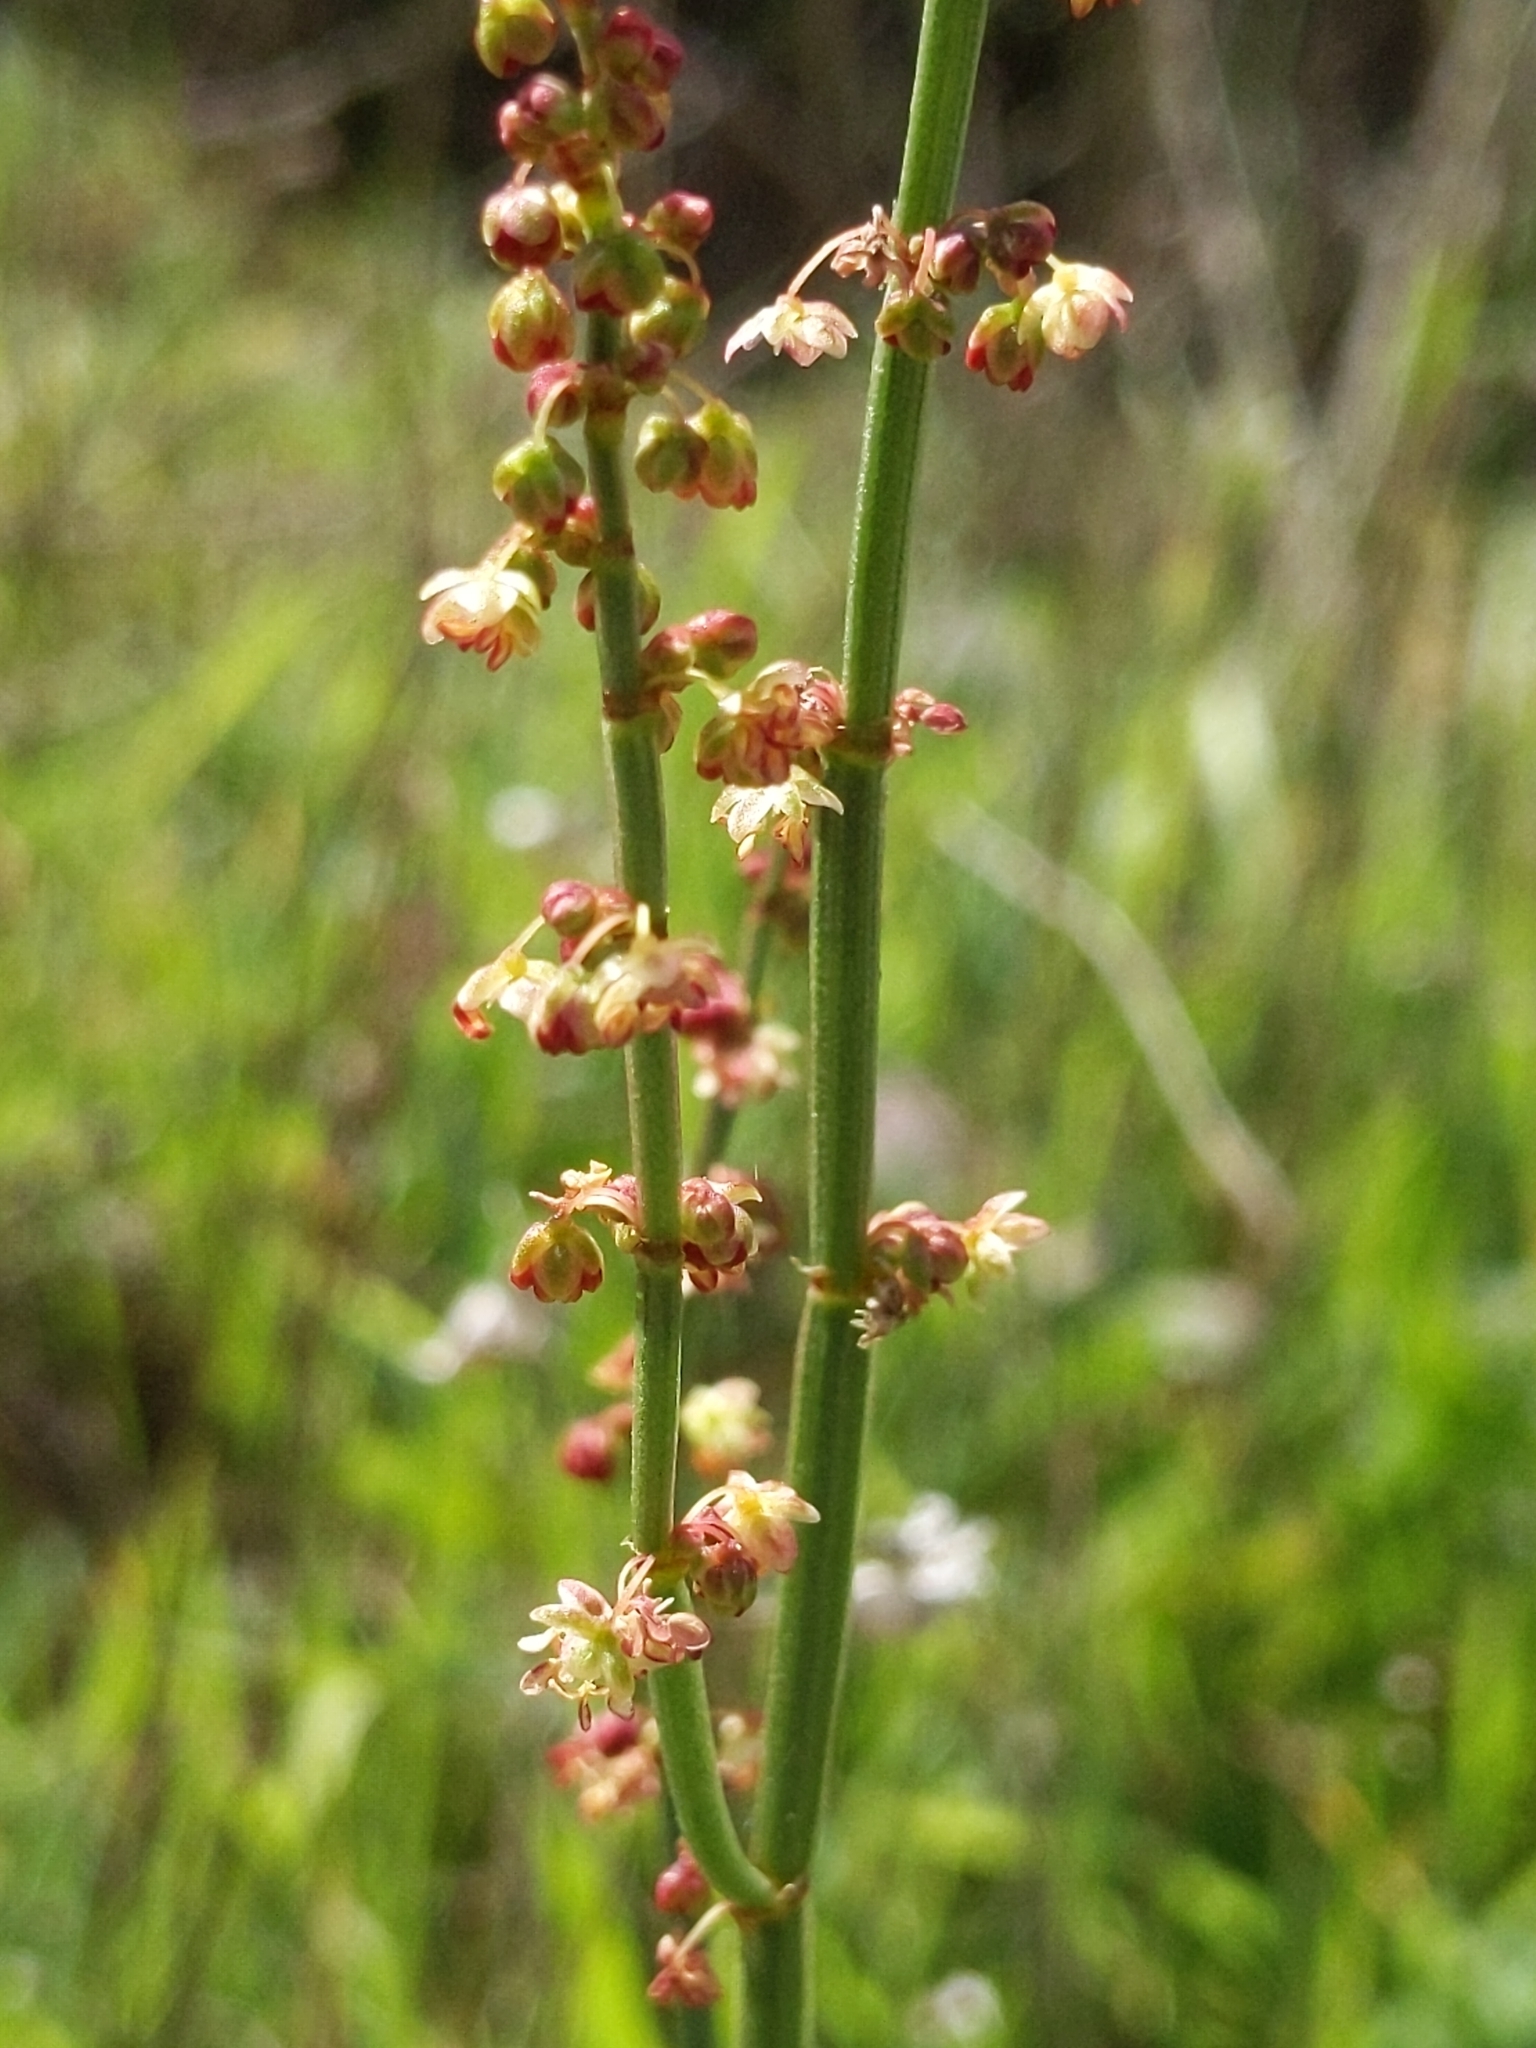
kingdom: Plantae
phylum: Tracheophyta
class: Magnoliopsida
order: Caryophyllales
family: Polygonaceae
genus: Rumex
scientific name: Rumex acetosella
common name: Common sheep sorrel
